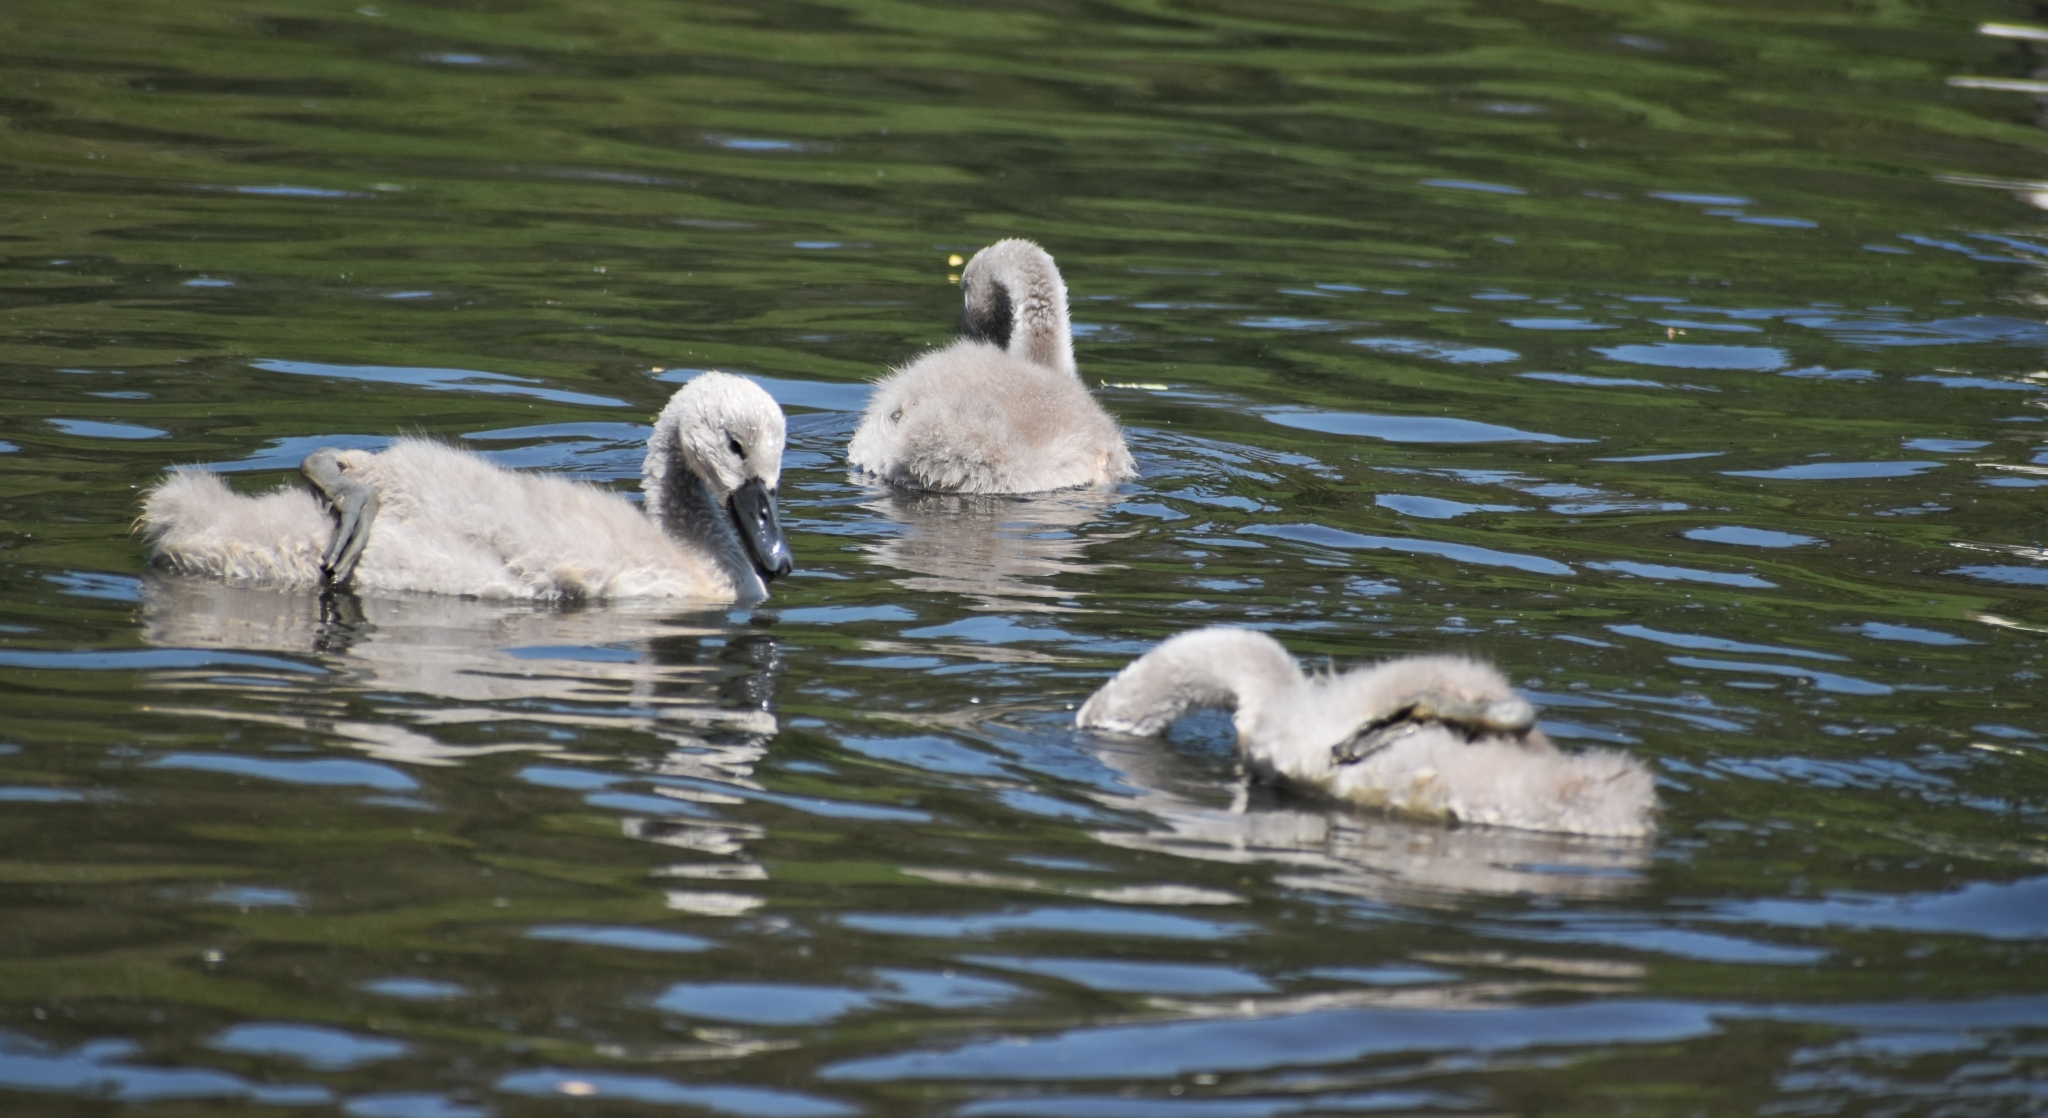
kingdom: Animalia
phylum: Chordata
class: Aves
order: Anseriformes
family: Anatidae
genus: Cygnus
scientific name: Cygnus olor
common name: Mute swan
